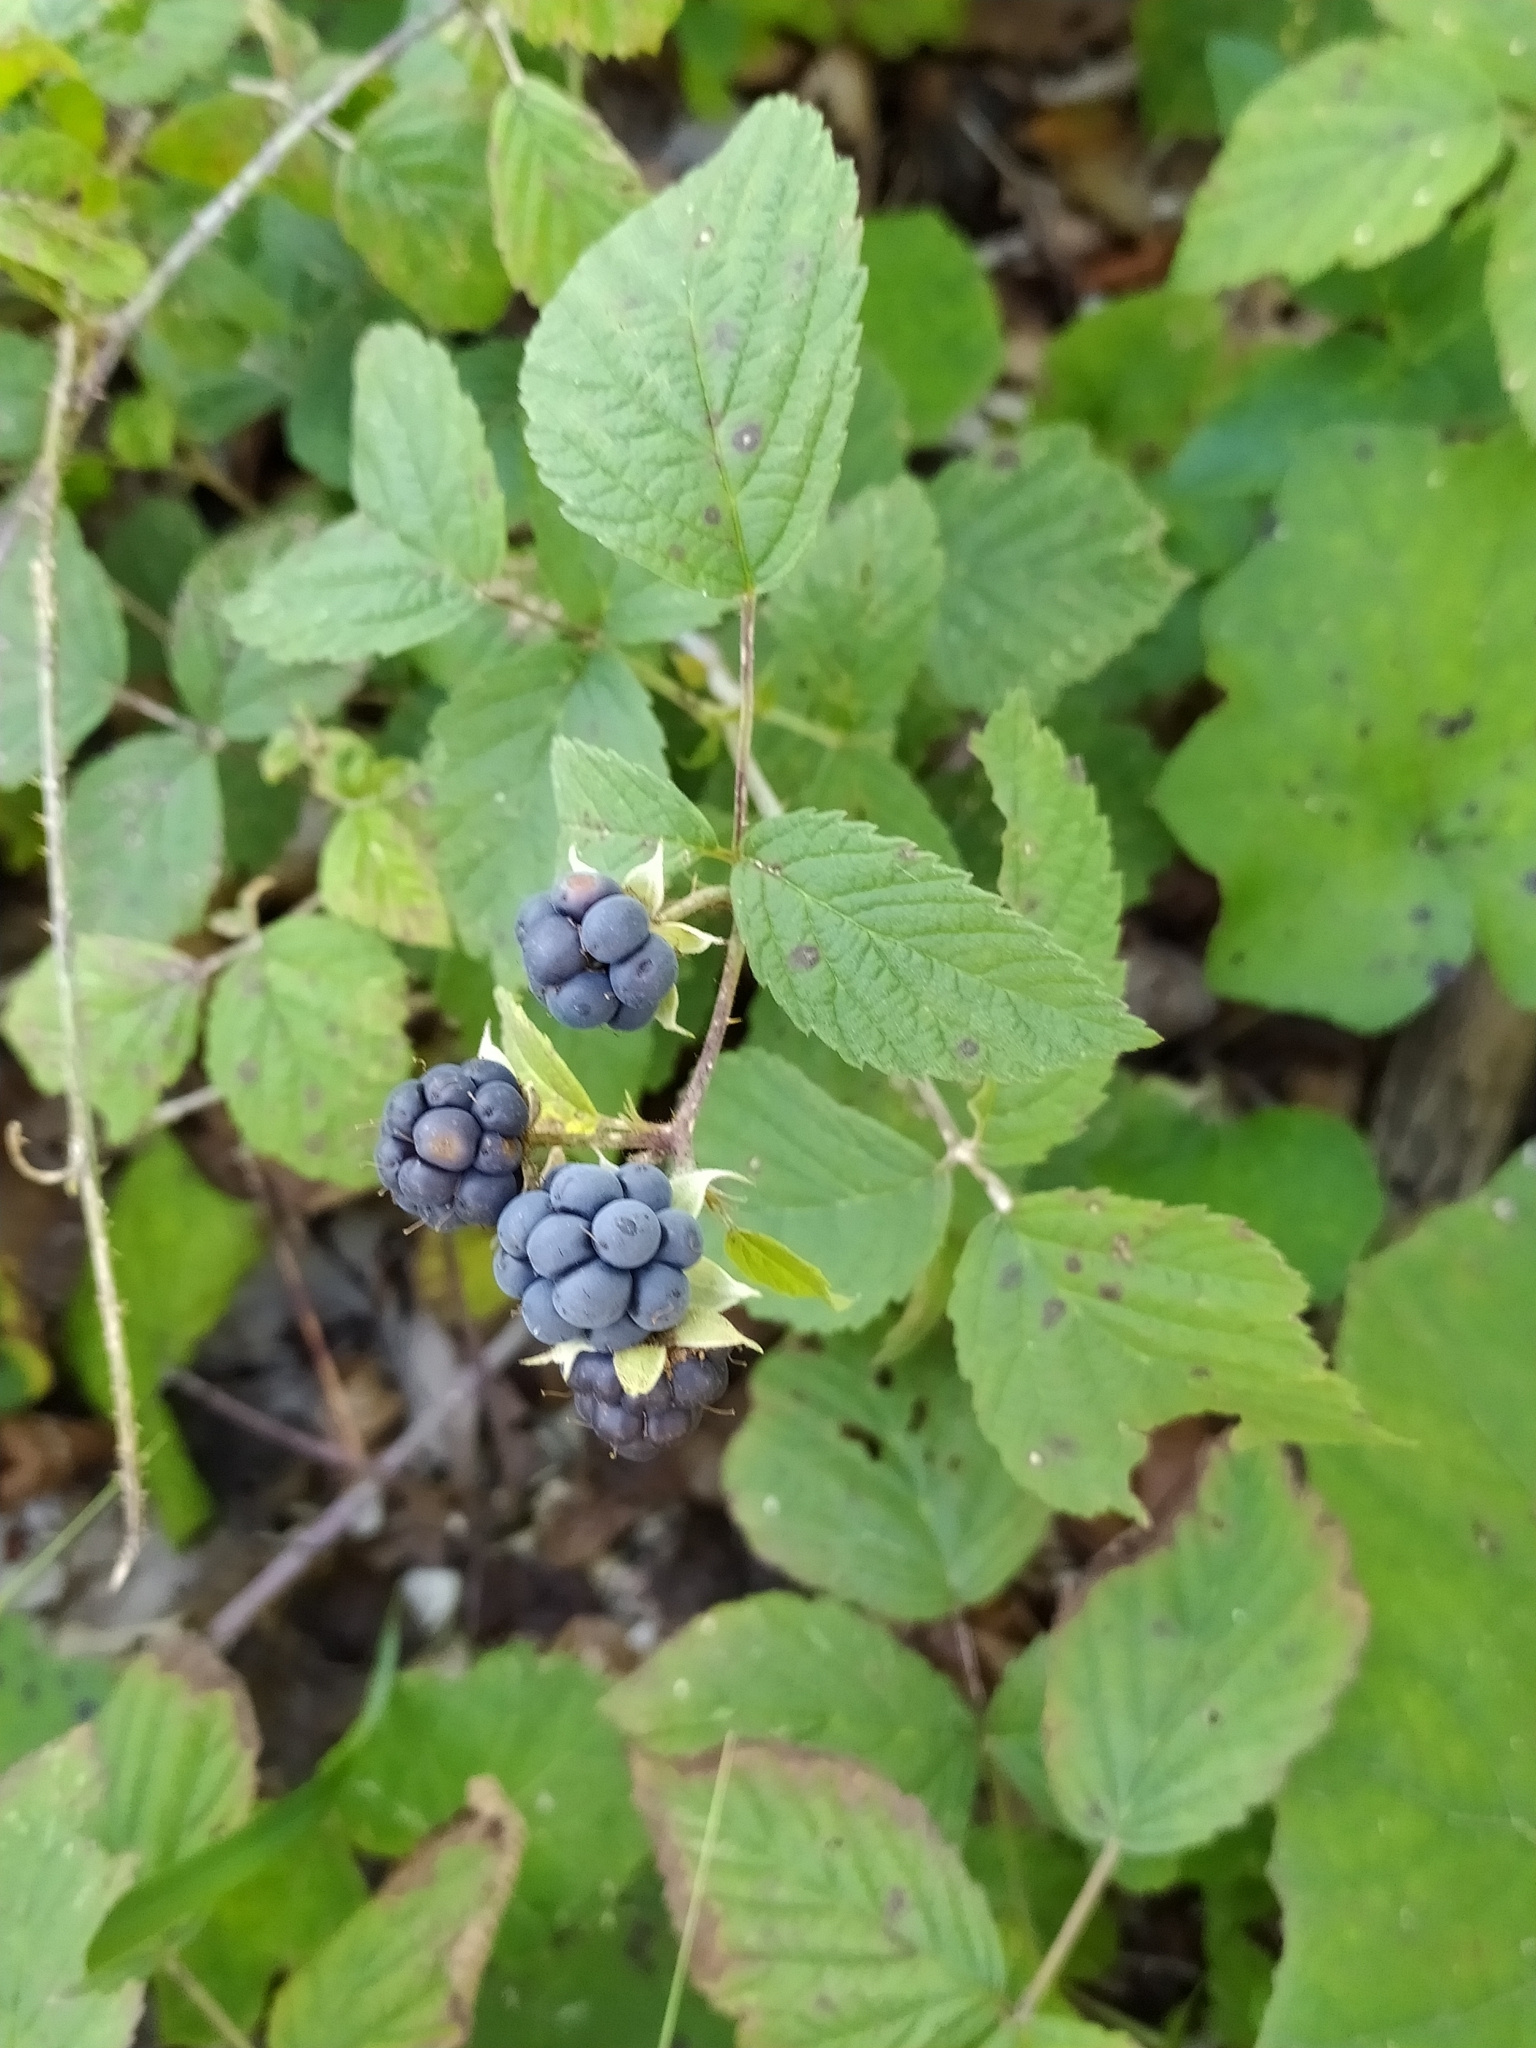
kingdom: Plantae
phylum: Tracheophyta
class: Magnoliopsida
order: Rosales
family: Rosaceae
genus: Rubus
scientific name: Rubus caesius
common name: Dewberry
